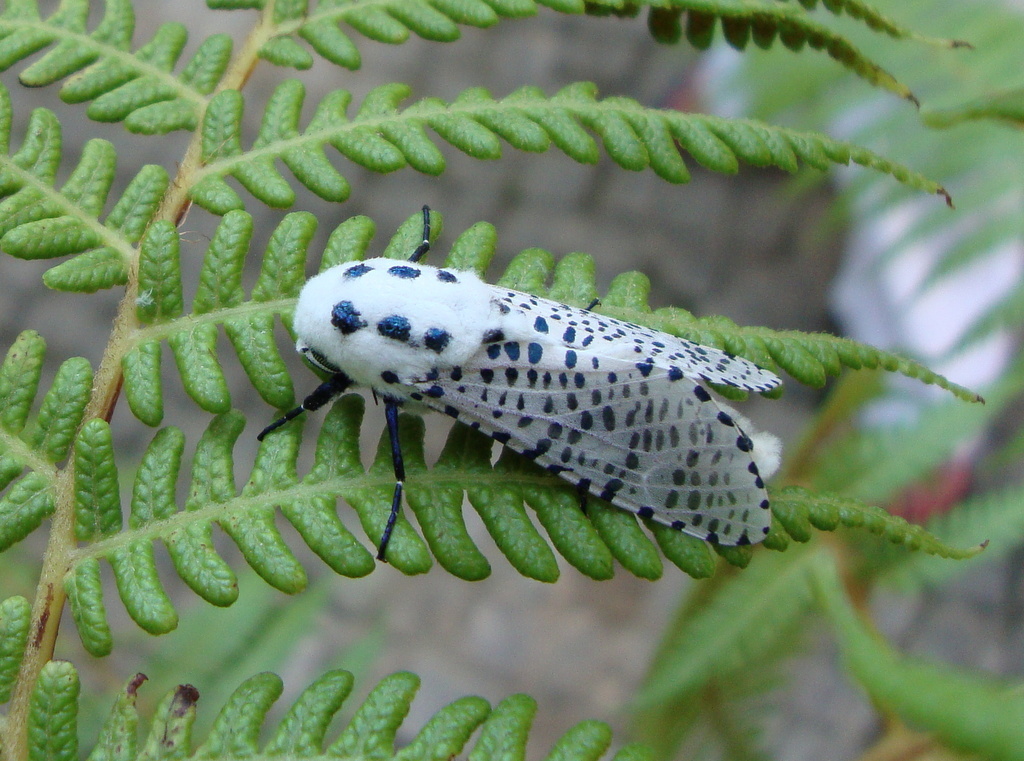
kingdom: Animalia
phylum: Arthropoda
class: Insecta
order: Lepidoptera
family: Cossidae
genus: Zeuzera
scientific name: Zeuzera pyrina
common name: Leopard moth
